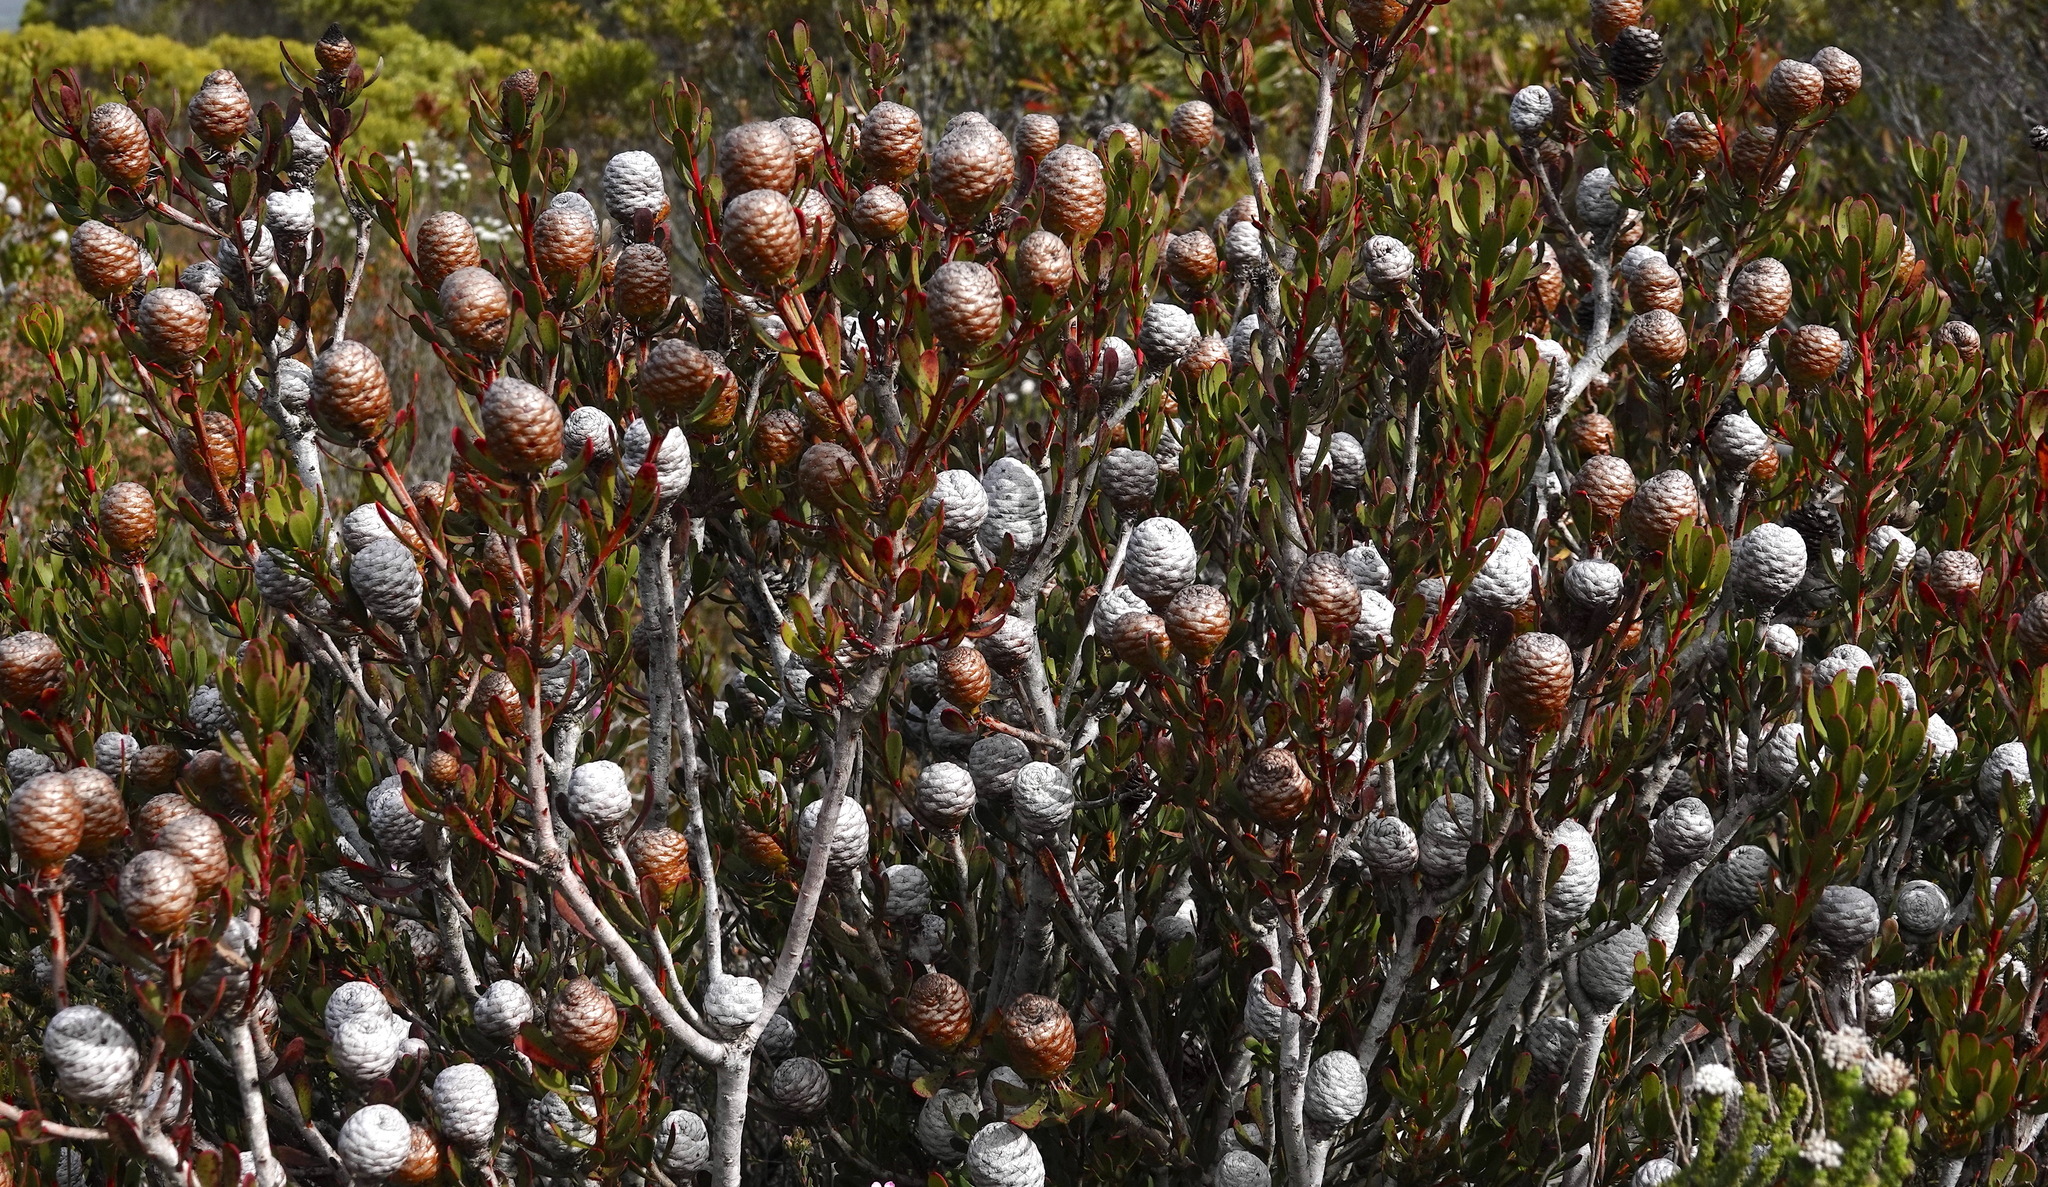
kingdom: Plantae
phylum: Tracheophyta
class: Magnoliopsida
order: Proteales
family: Proteaceae
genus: Leucadendron
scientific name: Leucadendron muirii
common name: Silver-ball conebush
